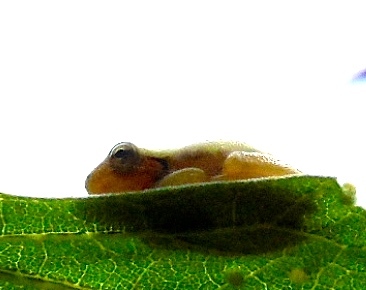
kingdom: Animalia
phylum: Chordata
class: Amphibia
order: Anura
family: Hylidae
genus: Tlalocohyla
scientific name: Tlalocohyla smithii
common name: Dwarf mexican treefrog
